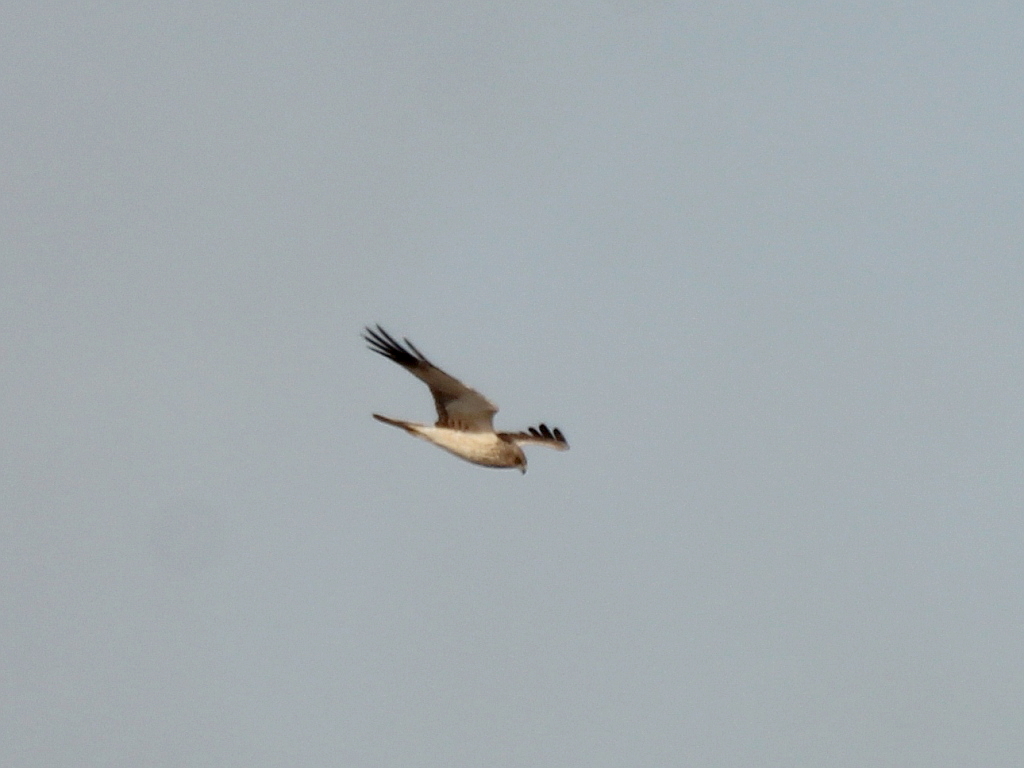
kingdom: Animalia
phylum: Chordata
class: Aves
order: Accipitriformes
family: Accipitridae
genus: Circus
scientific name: Circus spilonotus
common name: Eastern marsh-harrier
